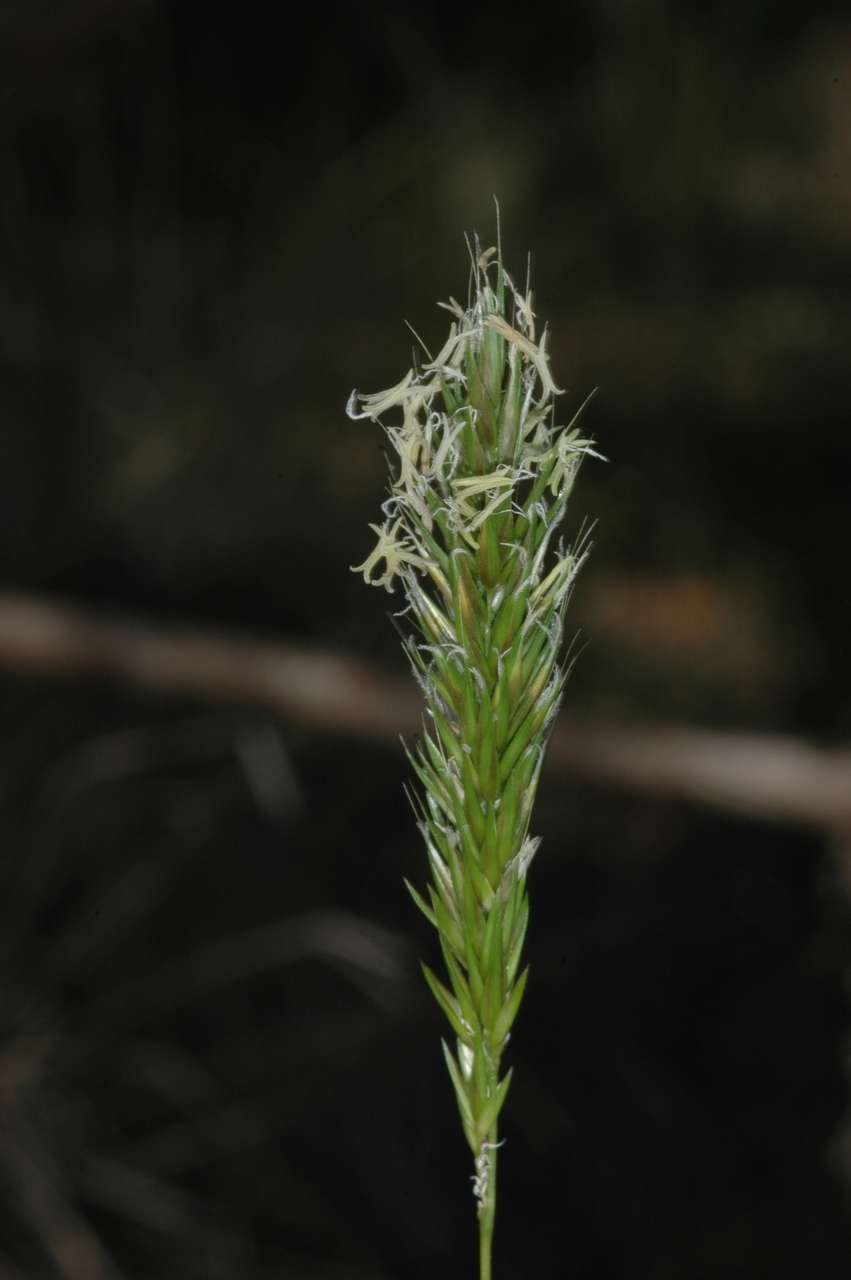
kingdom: Plantae
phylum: Tracheophyta
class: Liliopsida
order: Poales
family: Poaceae
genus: Anthoxanthum
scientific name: Anthoxanthum odoratum
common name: Sweet vernalgrass
